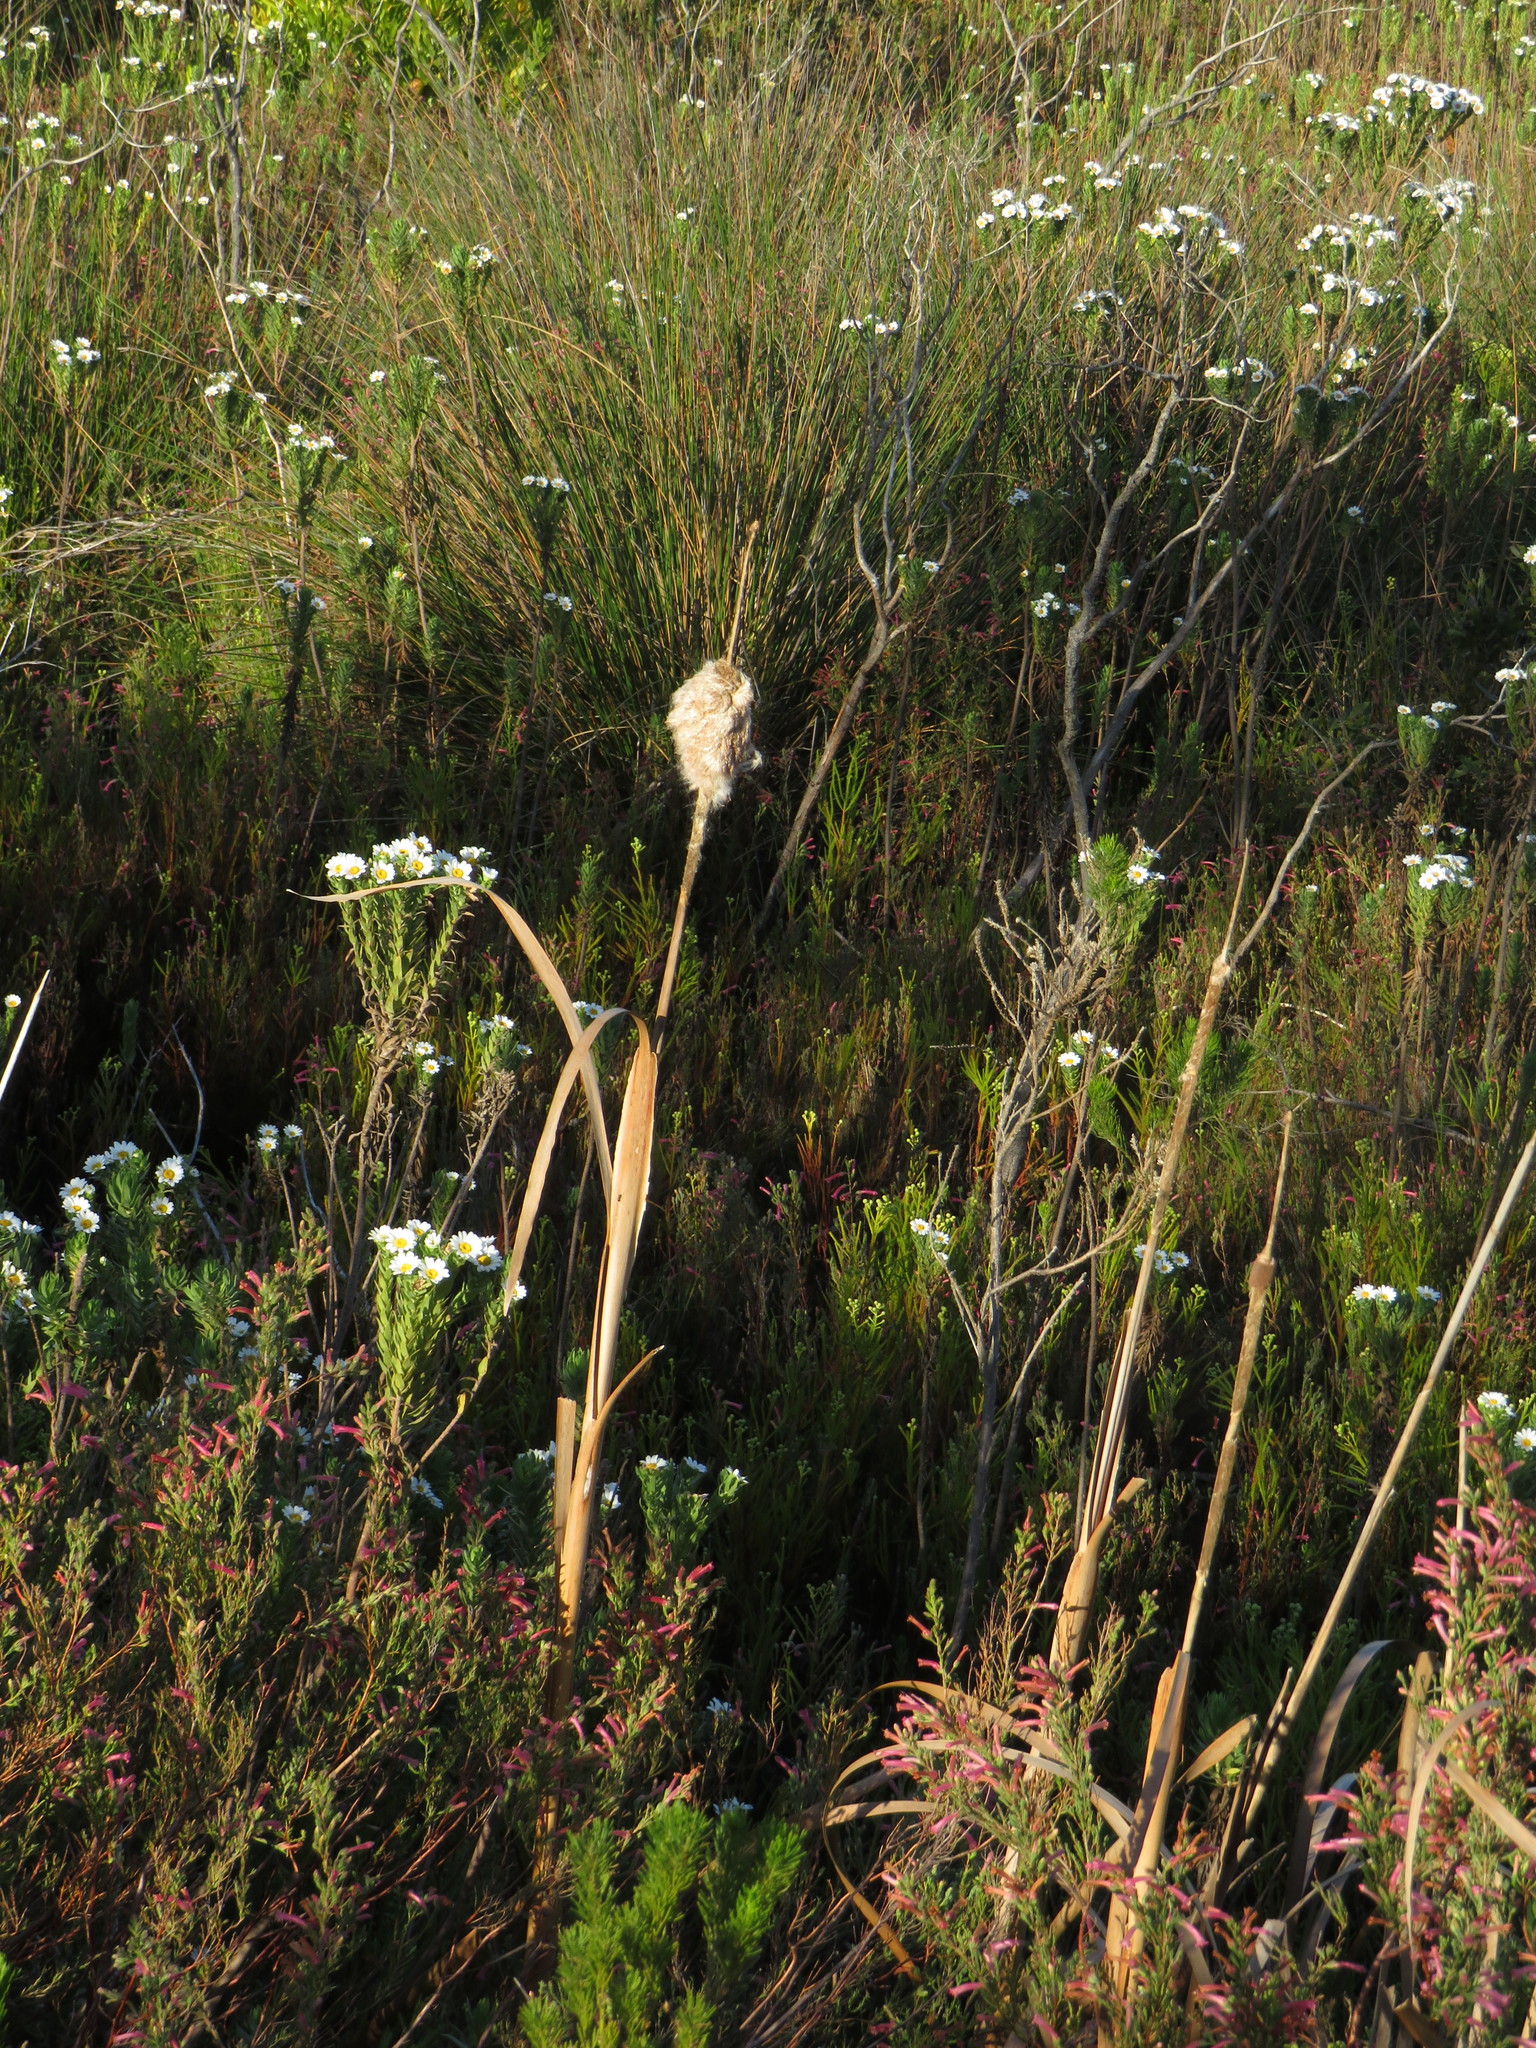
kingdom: Plantae
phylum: Tracheophyta
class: Liliopsida
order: Poales
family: Typhaceae
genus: Typha
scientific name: Typha capensis
